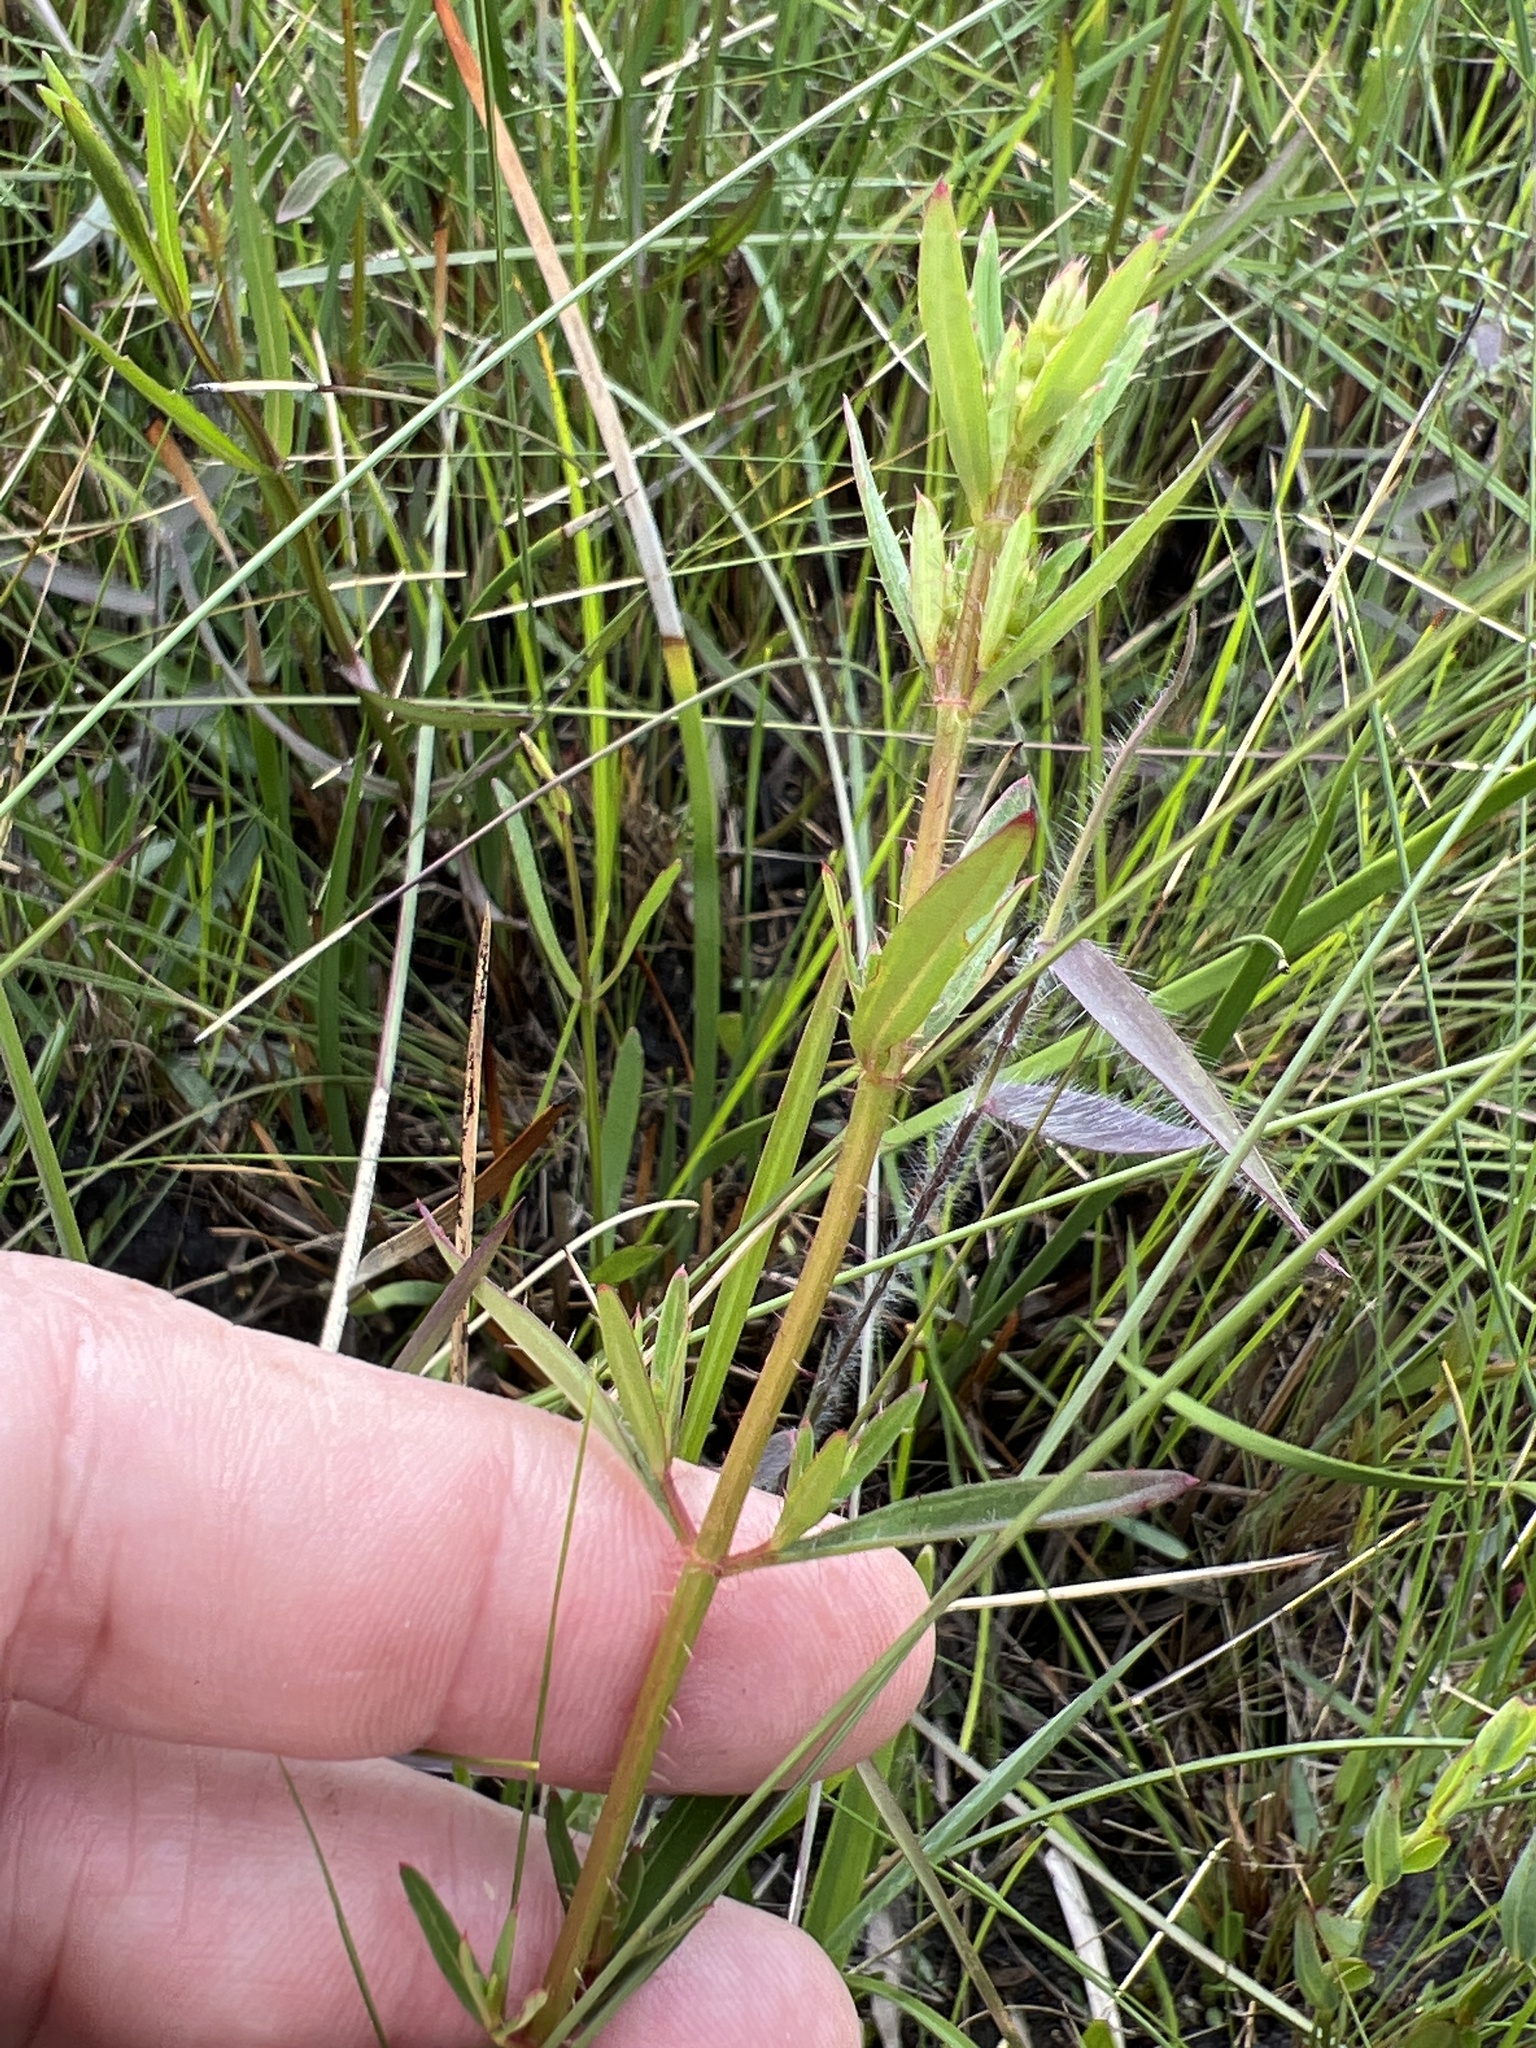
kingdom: Plantae
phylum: Tracheophyta
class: Magnoliopsida
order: Myrtales
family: Melastomataceae
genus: Rhexia
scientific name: Rhexia lutea
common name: Golden meadow-beauty
